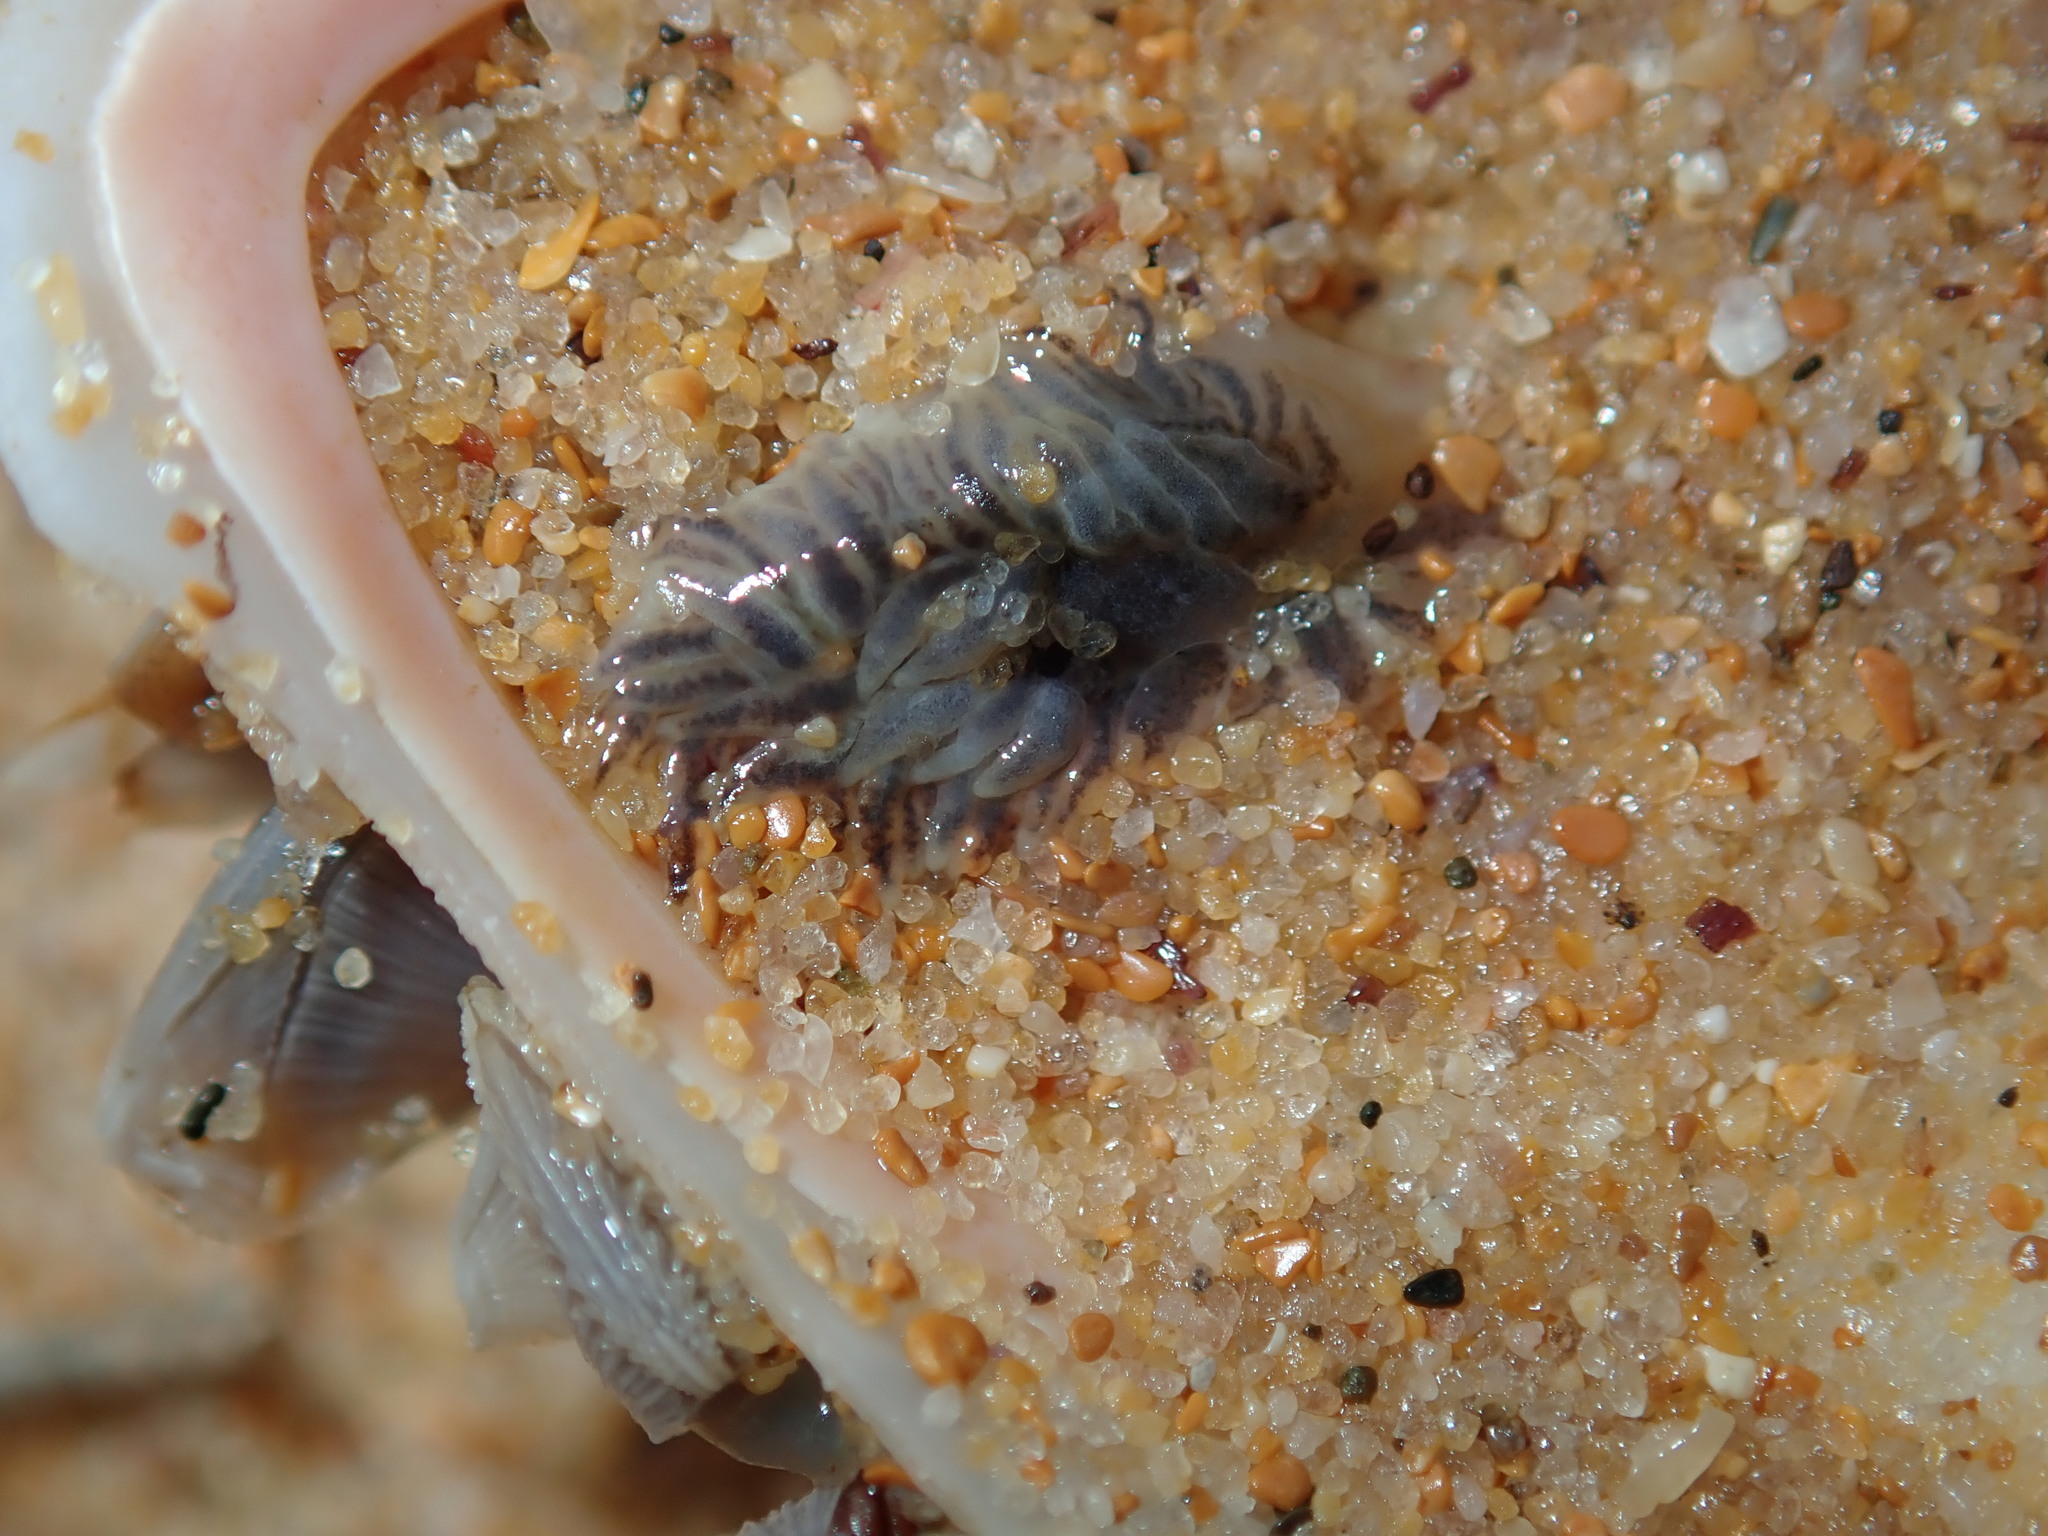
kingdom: Animalia
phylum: Mollusca
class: Gastropoda
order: Nudibranchia
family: Fionidae
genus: Fiona
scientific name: Fiona pinnata
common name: Fiona
